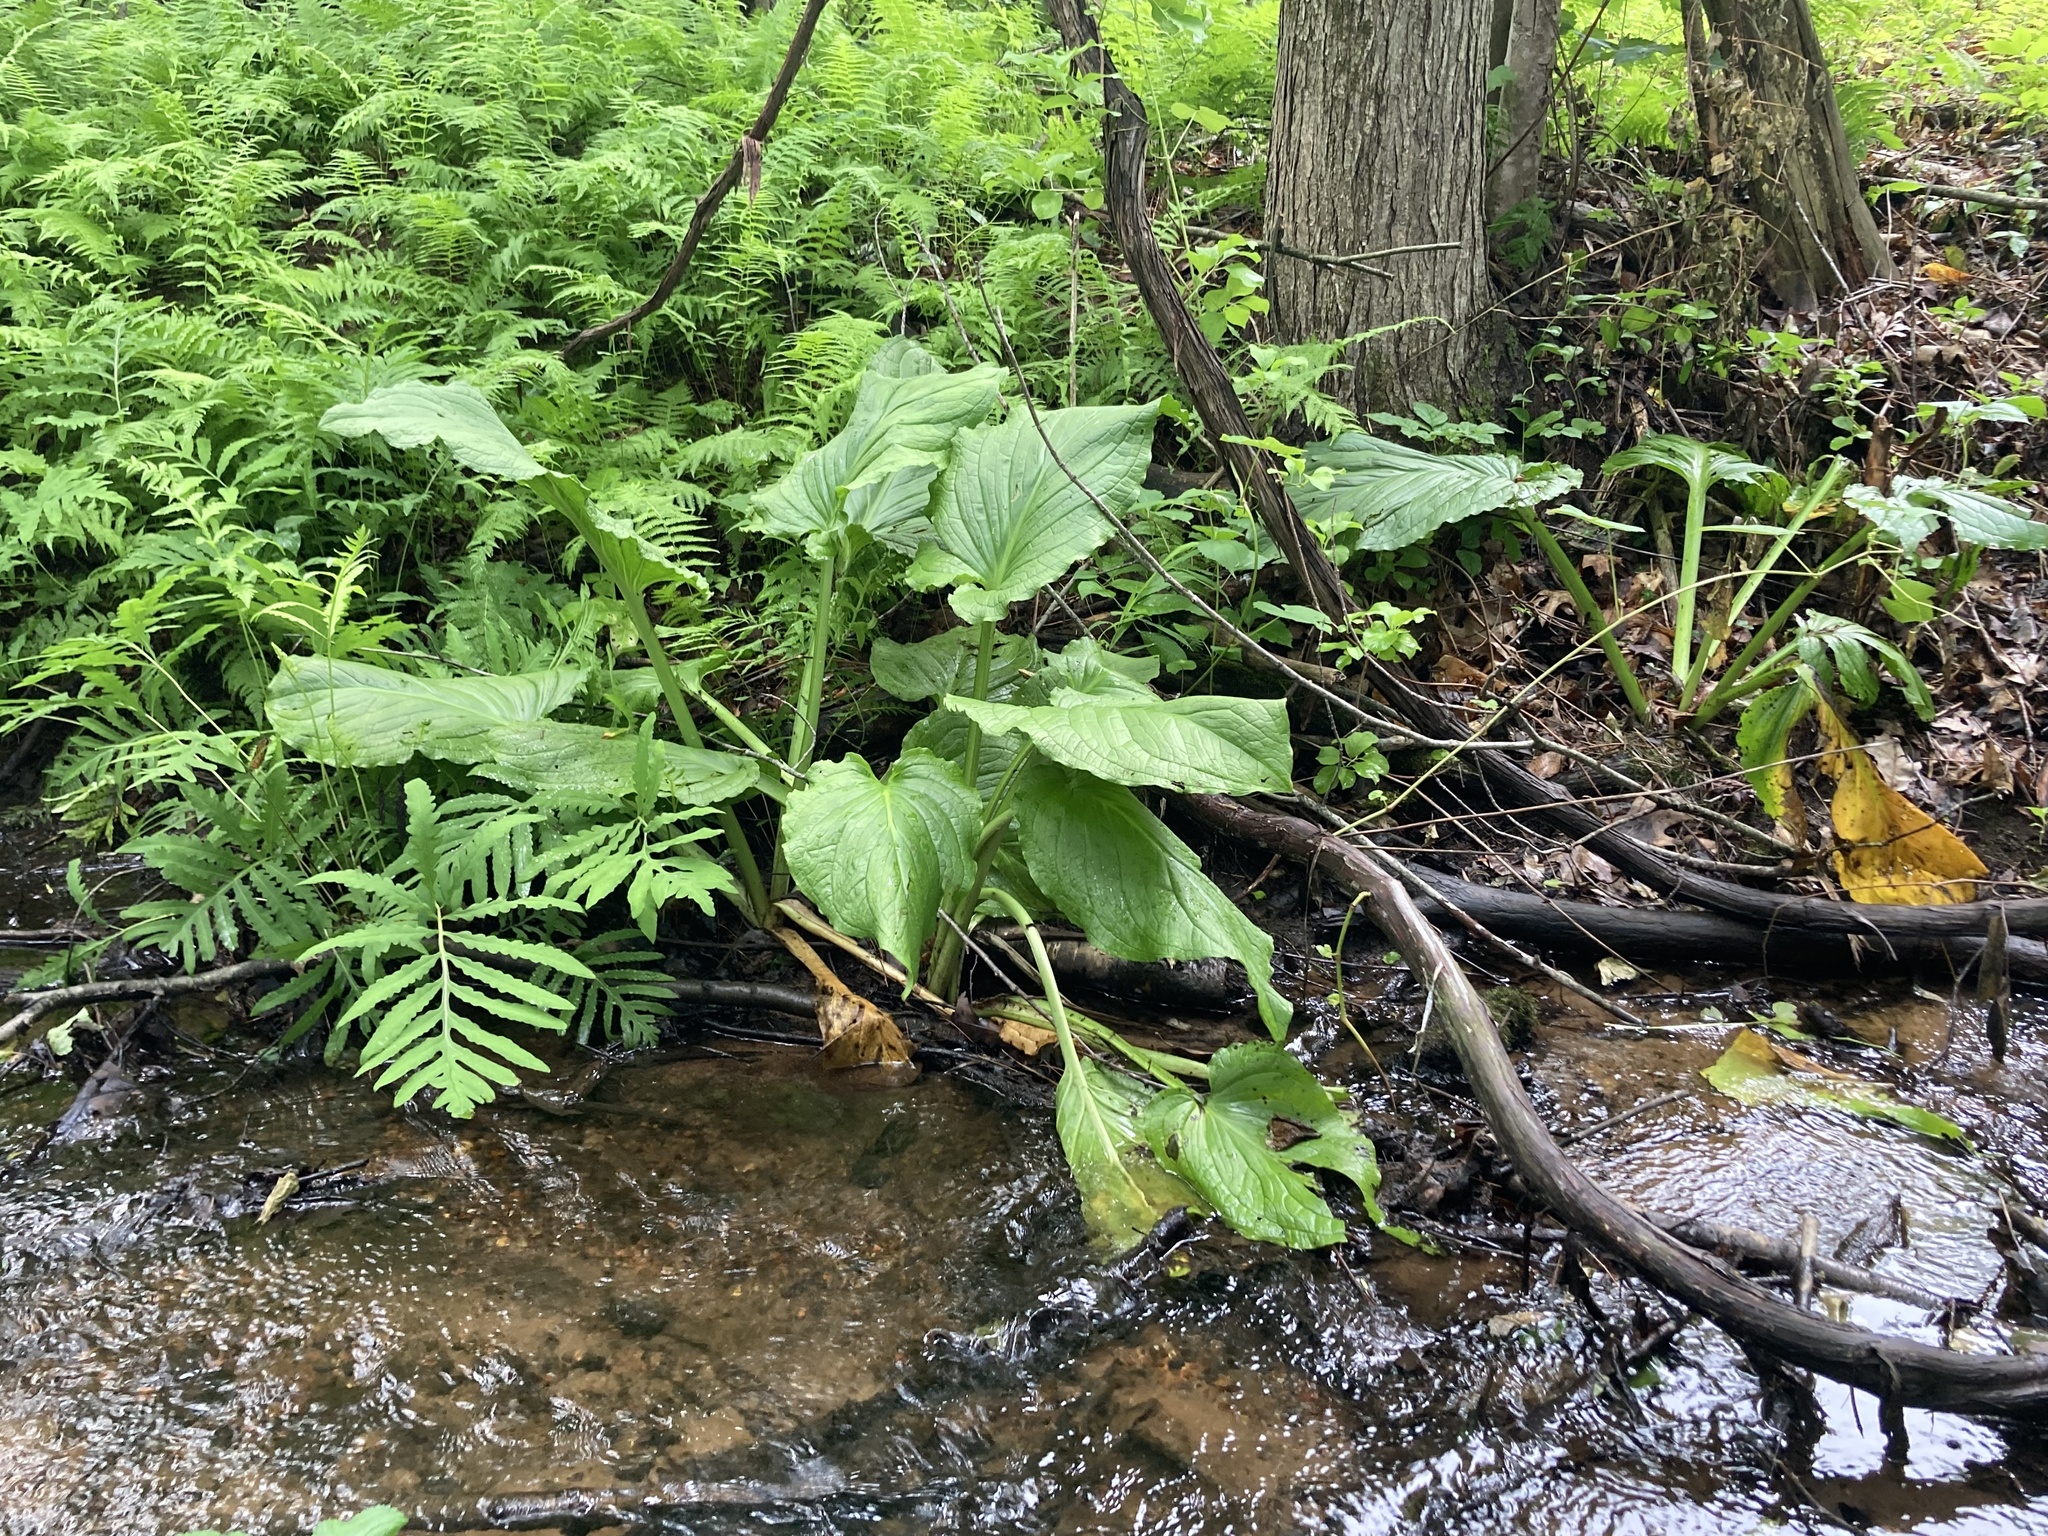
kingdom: Plantae
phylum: Tracheophyta
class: Liliopsida
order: Alismatales
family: Araceae
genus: Symplocarpus
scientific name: Symplocarpus foetidus
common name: Eastern skunk cabbage
